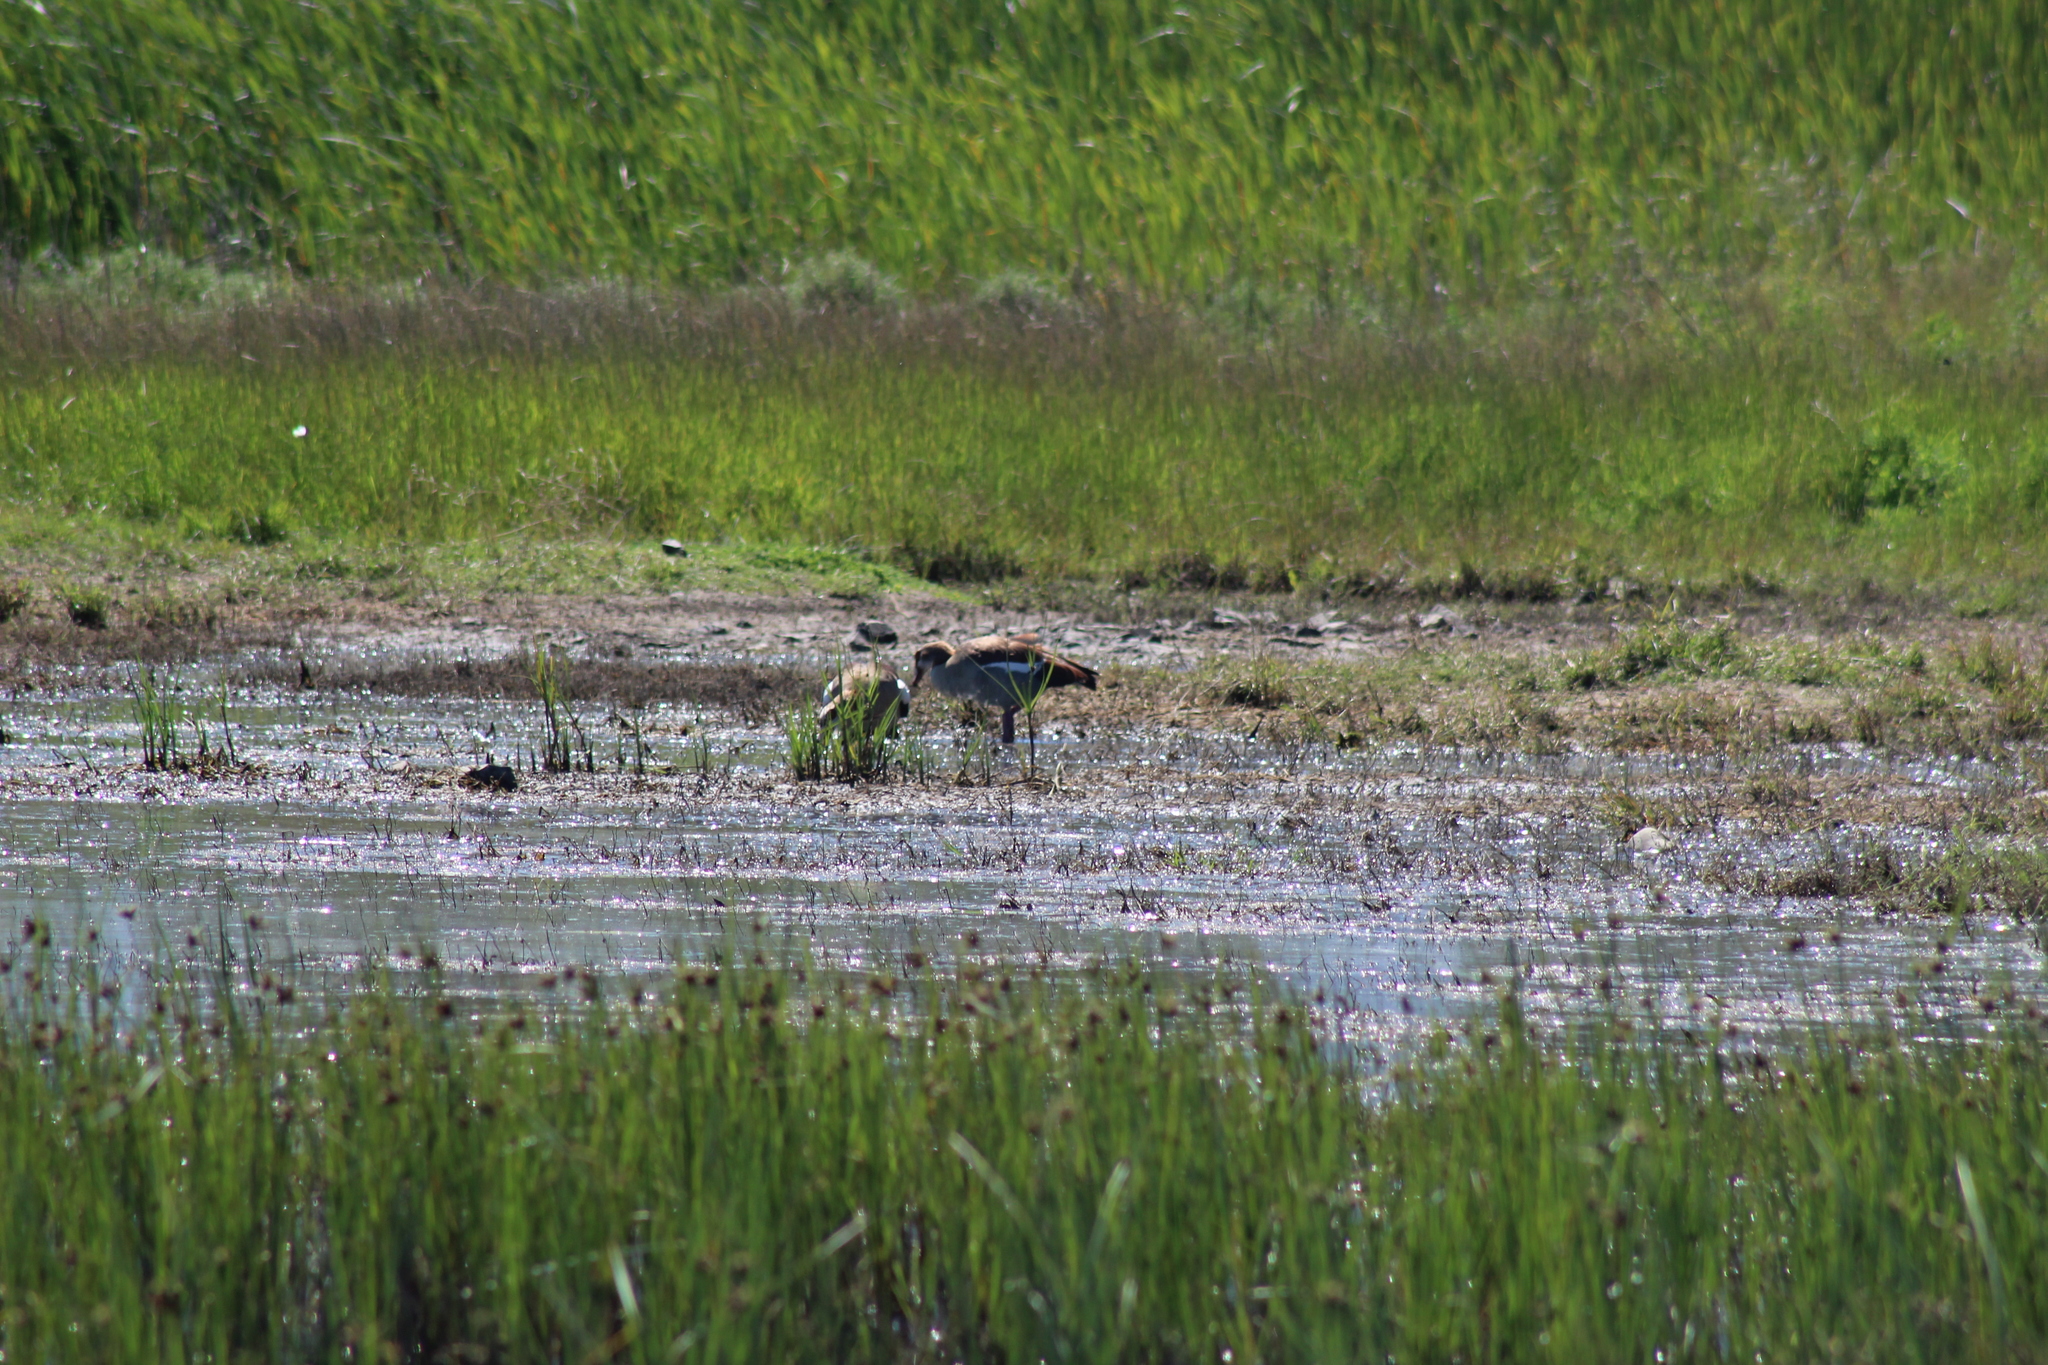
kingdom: Animalia
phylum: Chordata
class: Aves
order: Anseriformes
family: Anatidae
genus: Alopochen
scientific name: Alopochen aegyptiaca
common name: Egyptian goose
